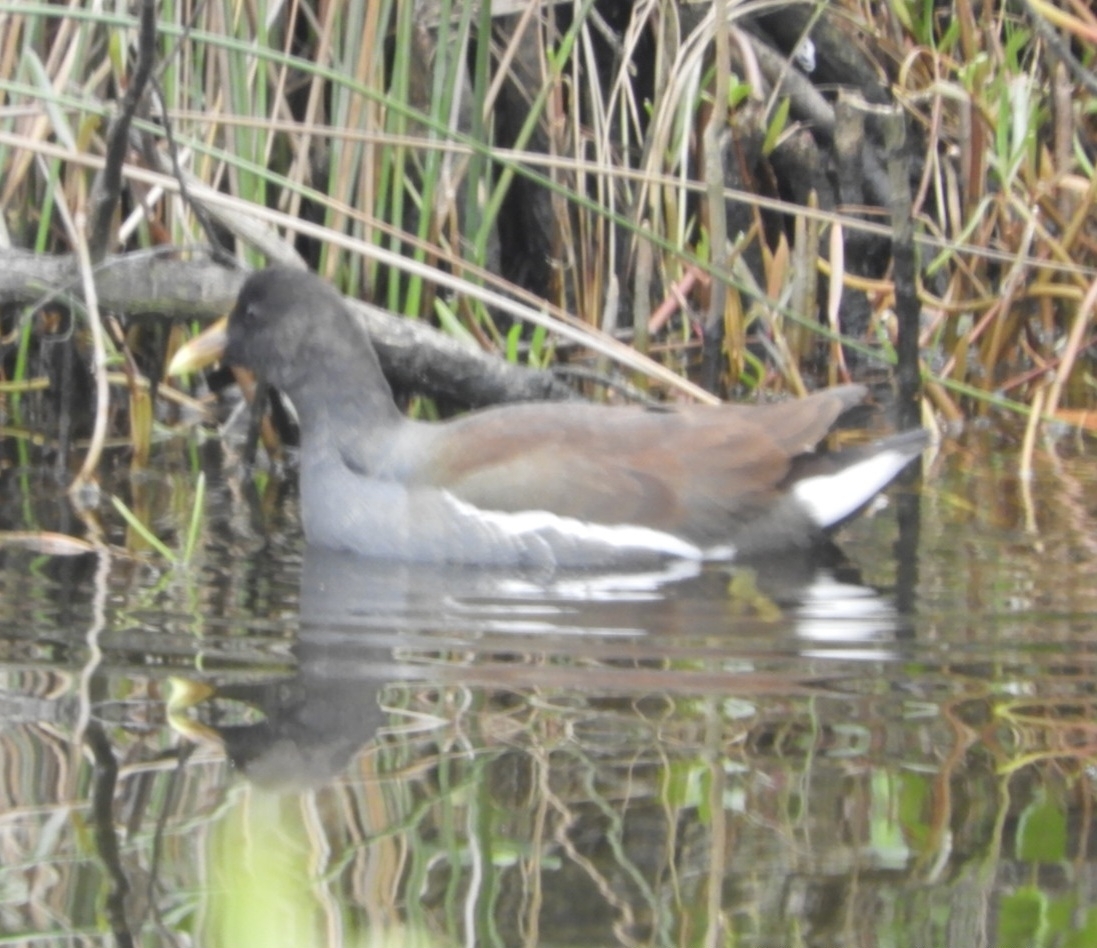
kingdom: Animalia
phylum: Chordata
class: Aves
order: Gruiformes
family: Rallidae
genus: Gallinula
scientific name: Gallinula chloropus
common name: Common moorhen
